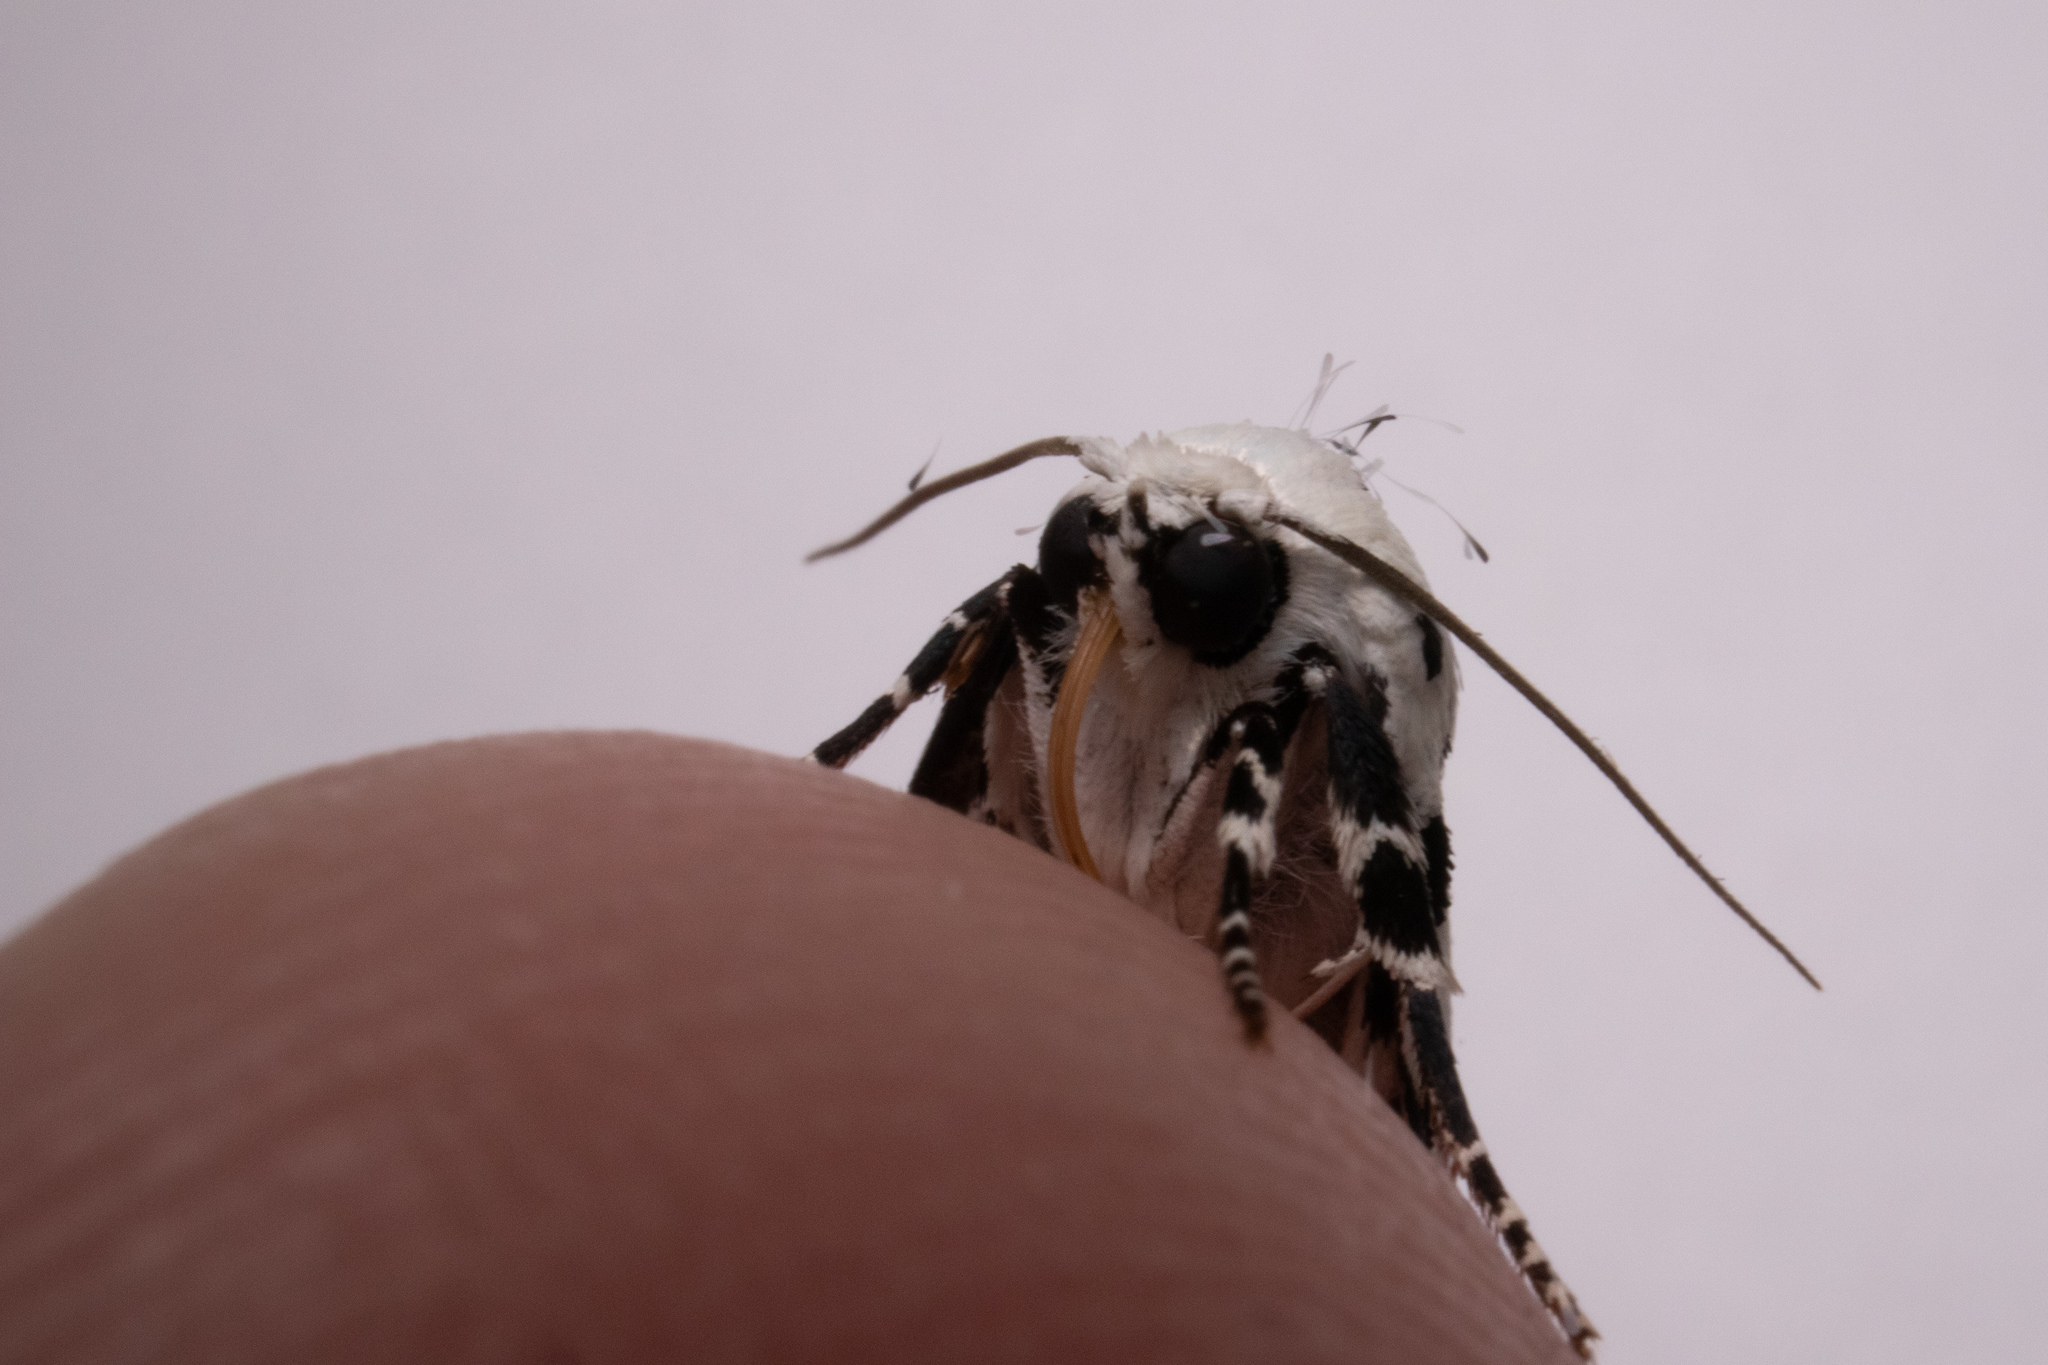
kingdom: Animalia
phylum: Arthropoda
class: Insecta
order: Lepidoptera
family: Noctuidae
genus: Polygrammate
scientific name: Polygrammate hebraeicum
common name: Hebrew moth
